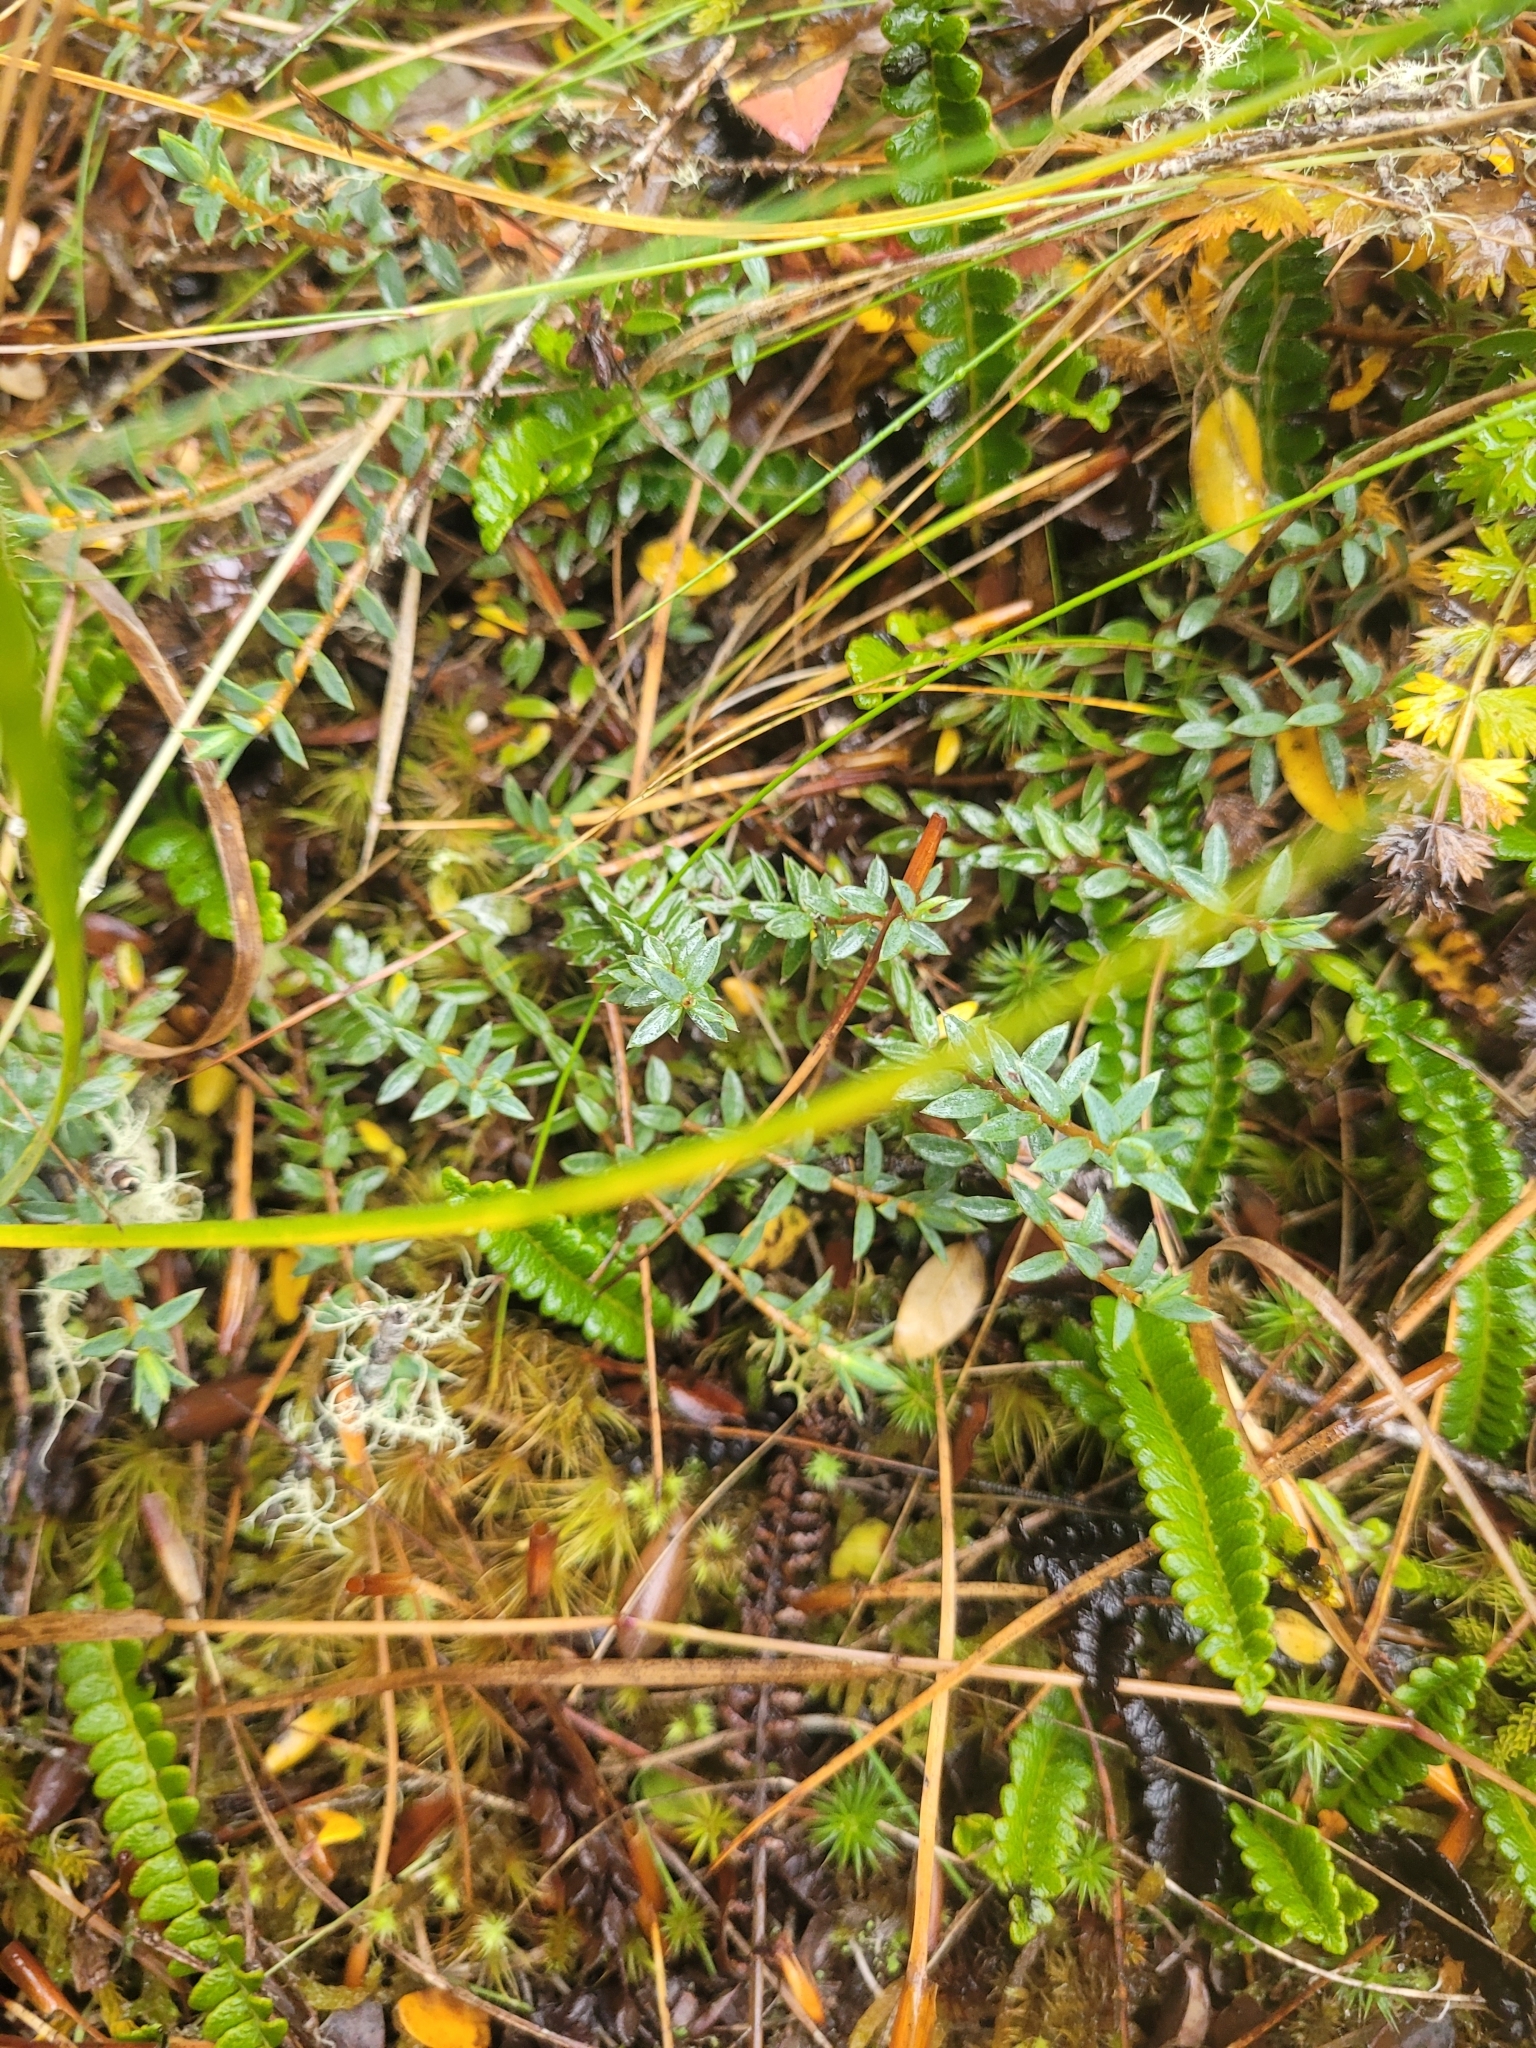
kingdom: Plantae
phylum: Tracheophyta
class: Magnoliopsida
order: Malvales
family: Thymelaeaceae
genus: Pimelea
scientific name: Pimelea oreophila
